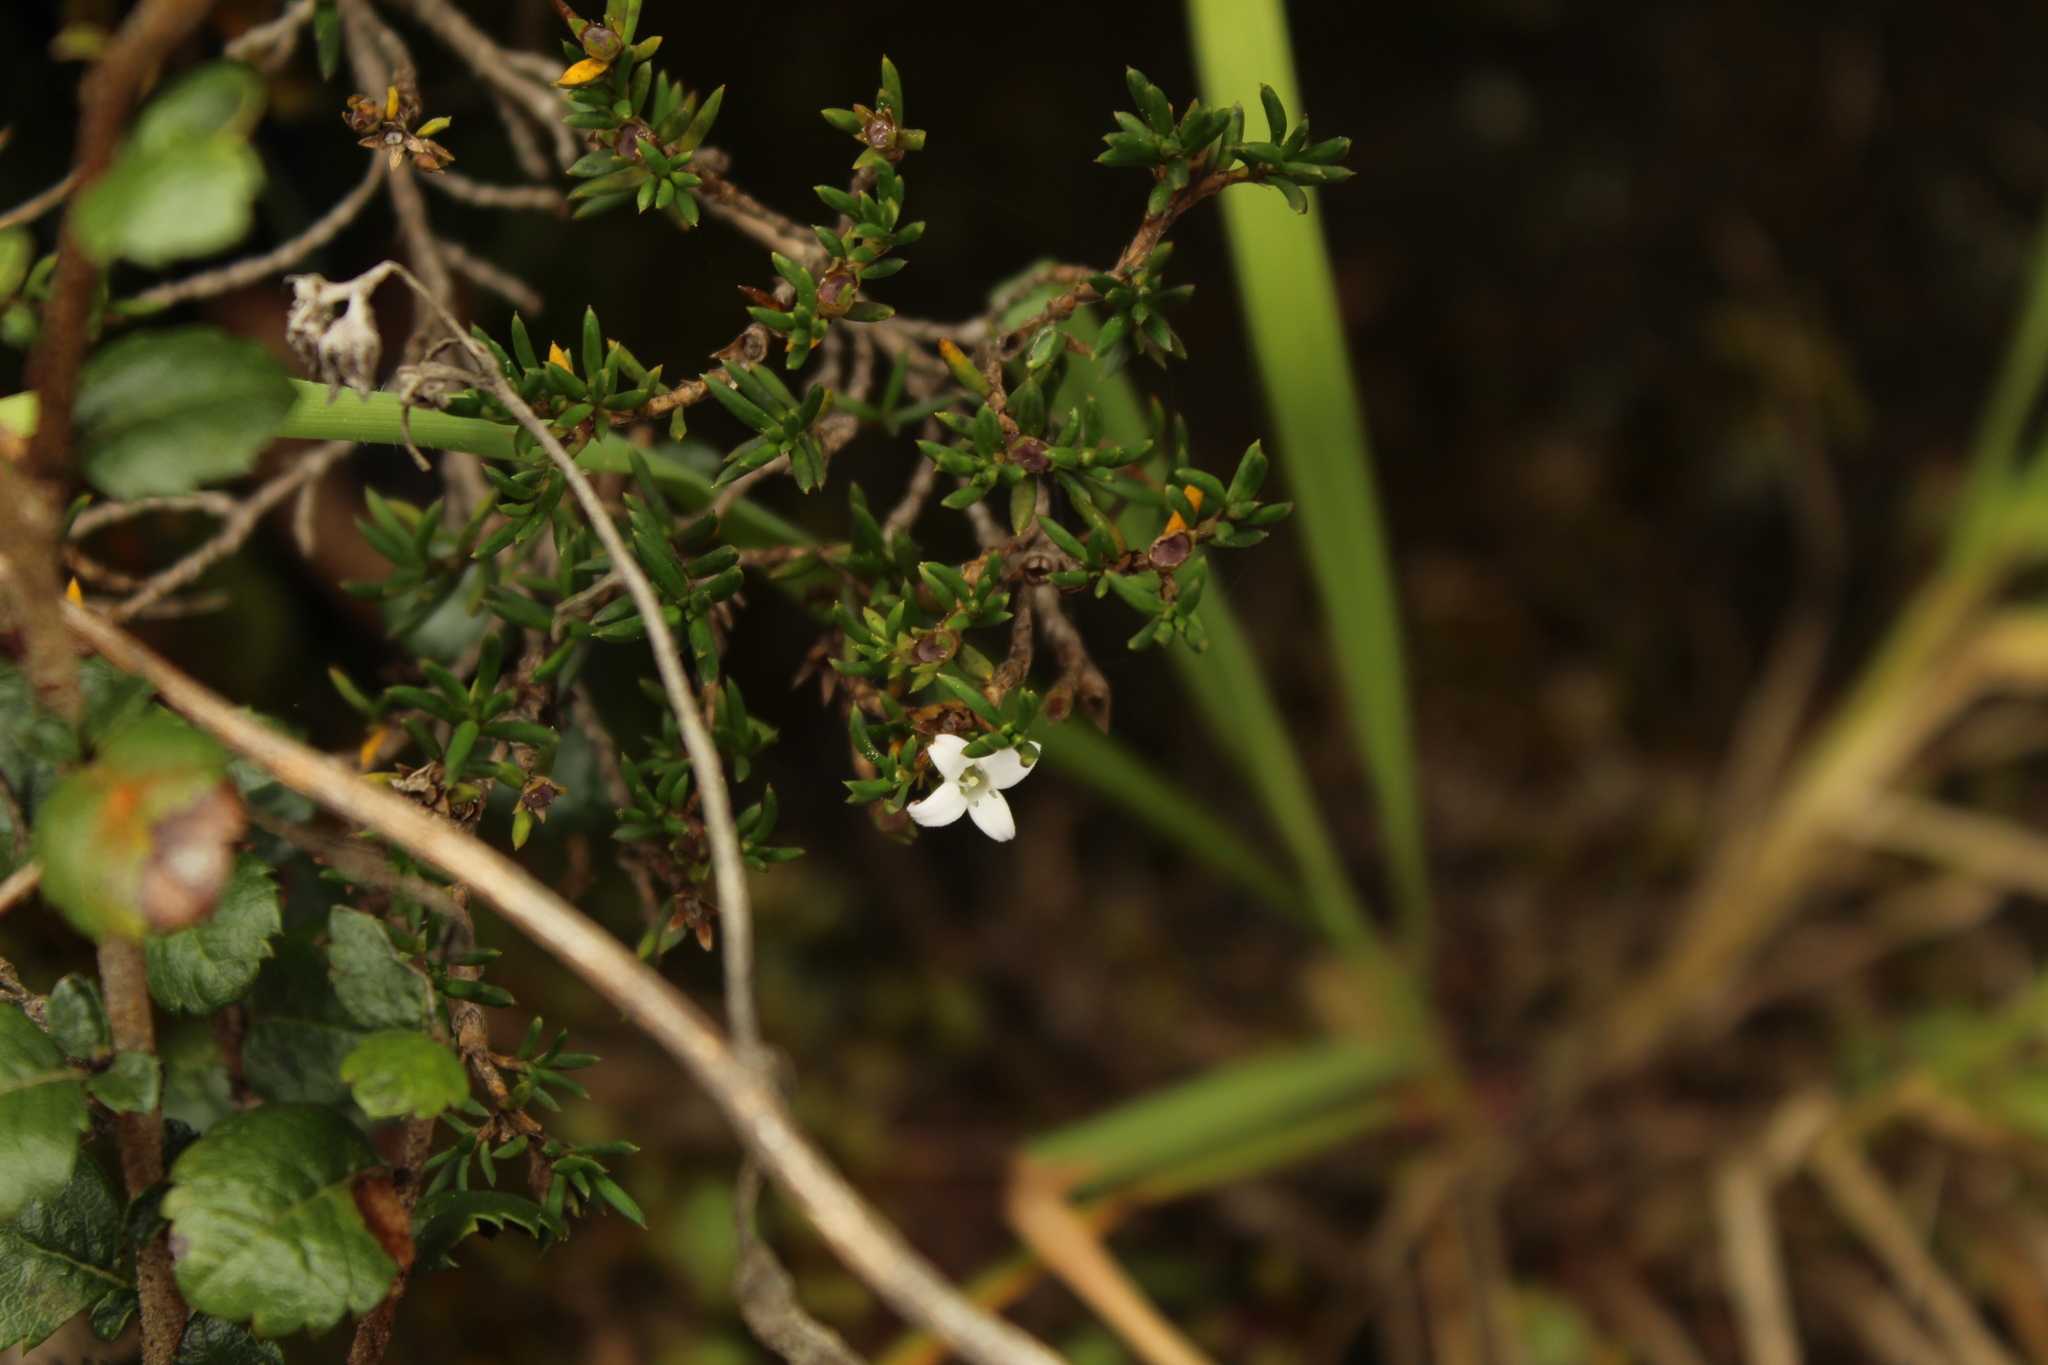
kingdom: Plantae
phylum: Tracheophyta
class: Magnoliopsida
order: Gentianales
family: Rubiaceae
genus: Arcytophyllum
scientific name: Arcytophyllum nitidum
